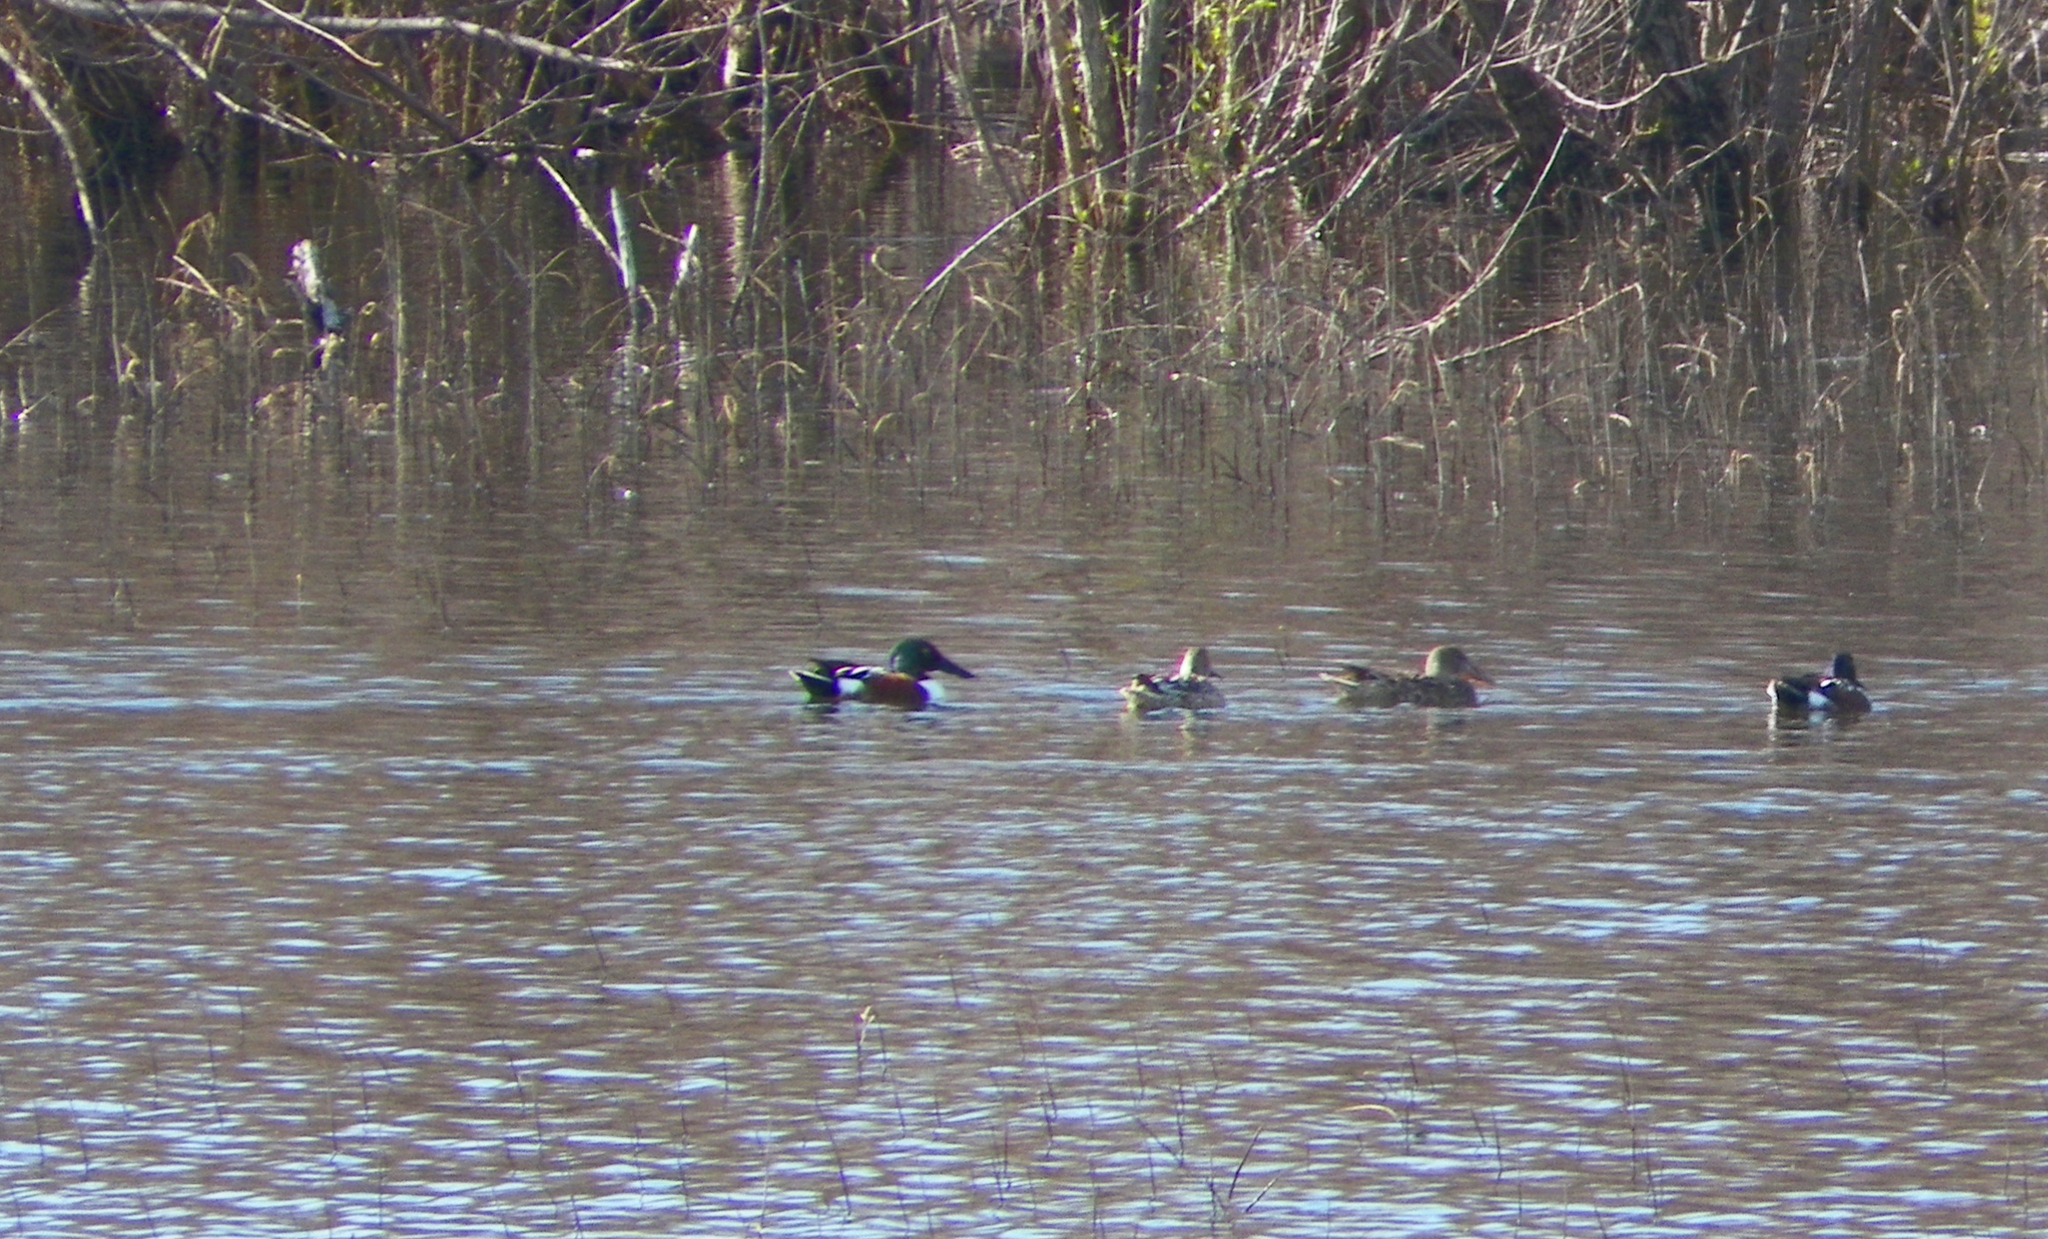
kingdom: Animalia
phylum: Chordata
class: Aves
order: Anseriformes
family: Anatidae
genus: Spatula
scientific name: Spatula clypeata
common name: Northern shoveler
